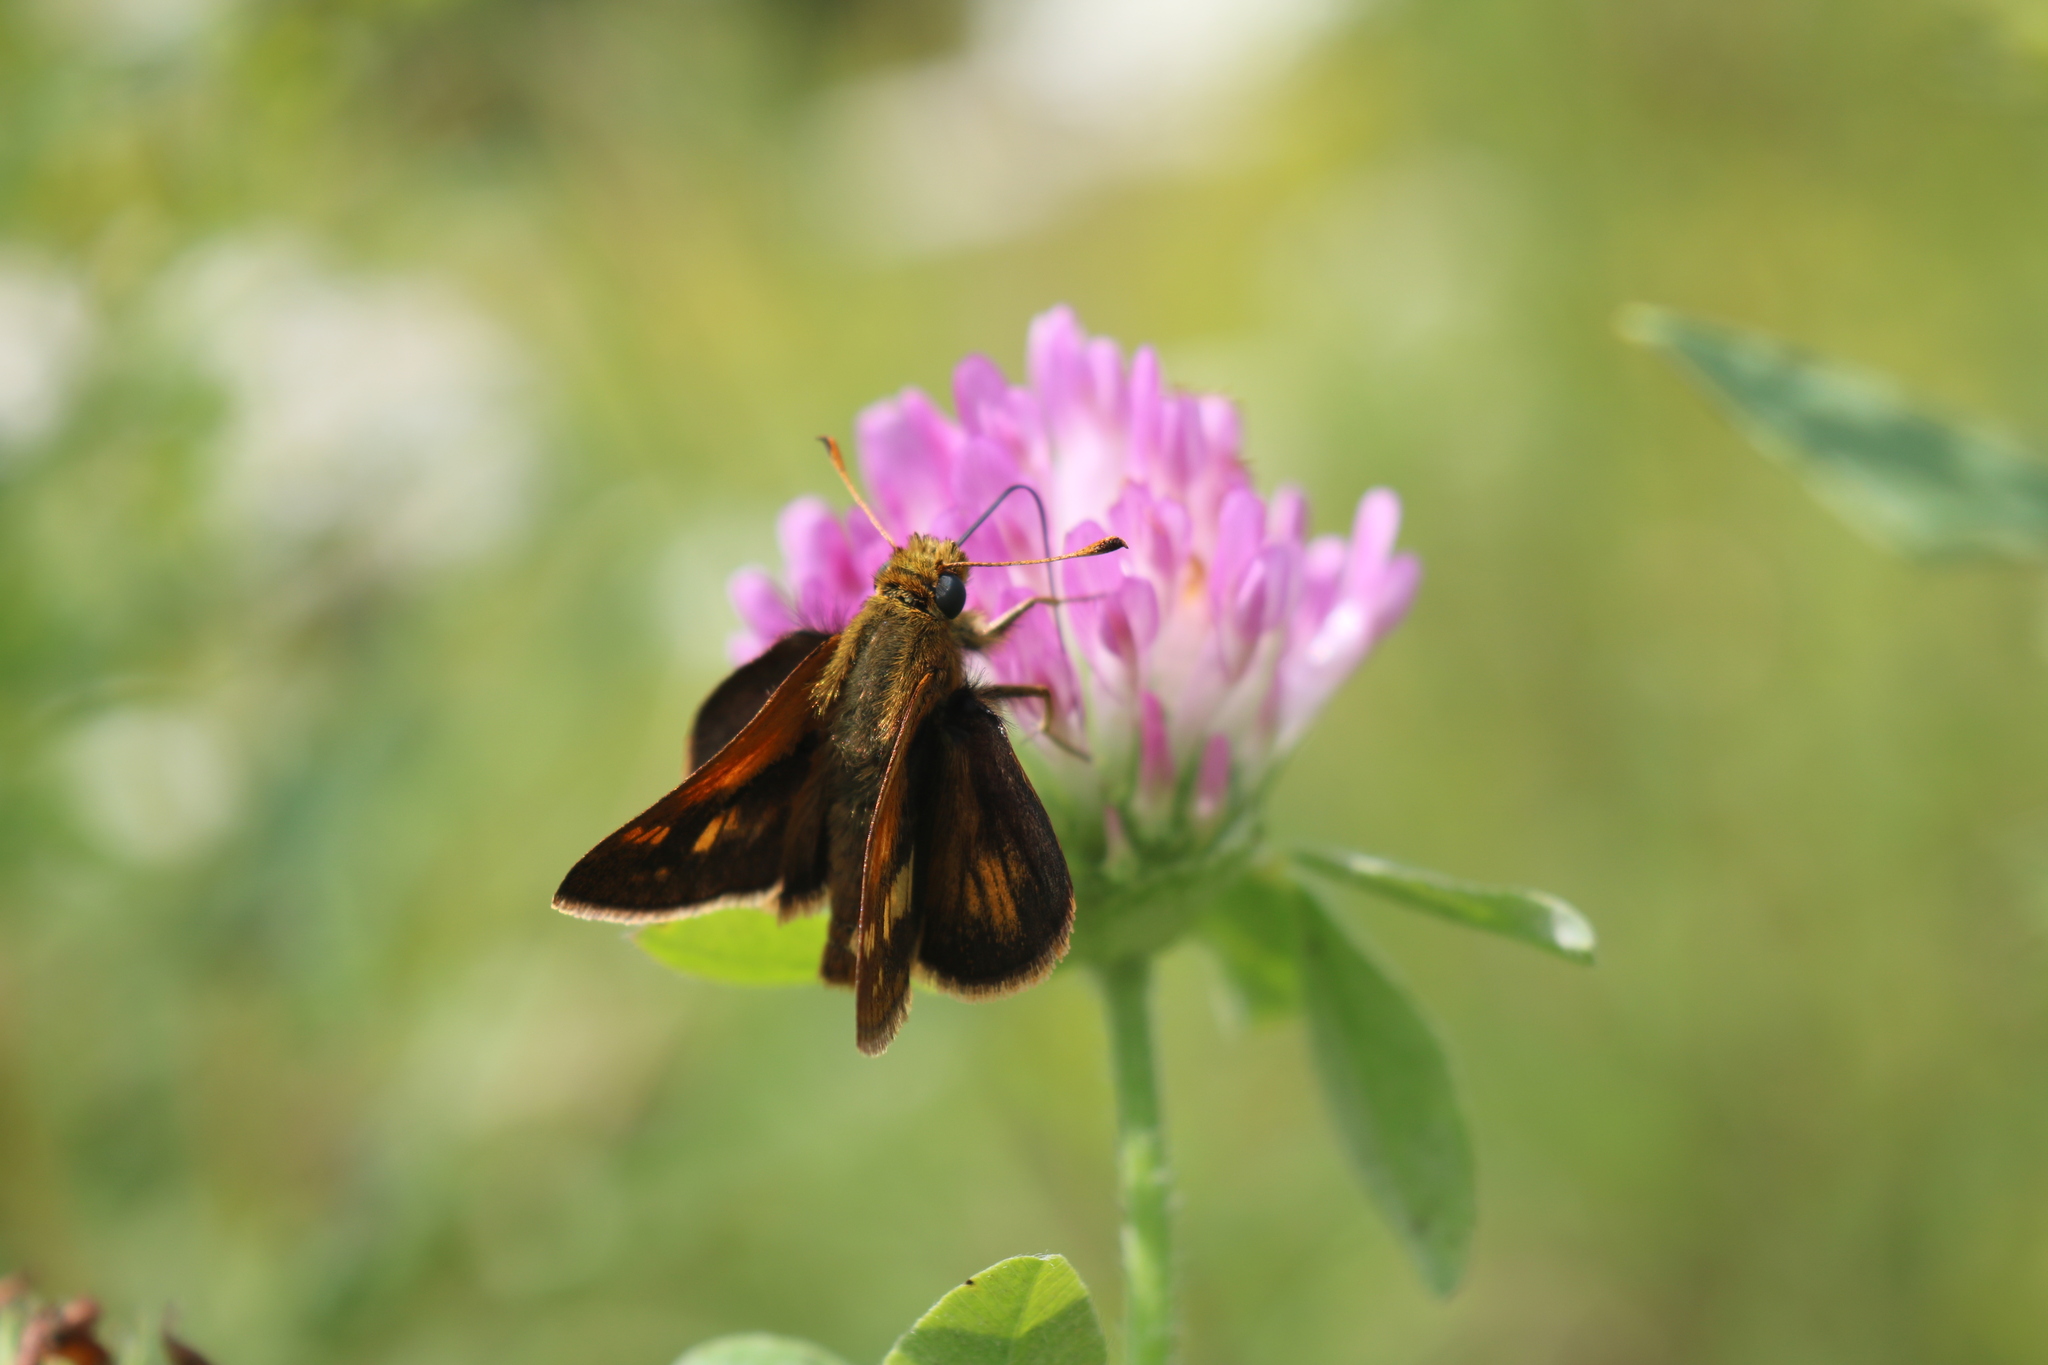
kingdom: Animalia
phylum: Arthropoda
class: Insecta
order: Lepidoptera
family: Hesperiidae
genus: Polites
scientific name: Polites coras
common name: Peck's skipper
